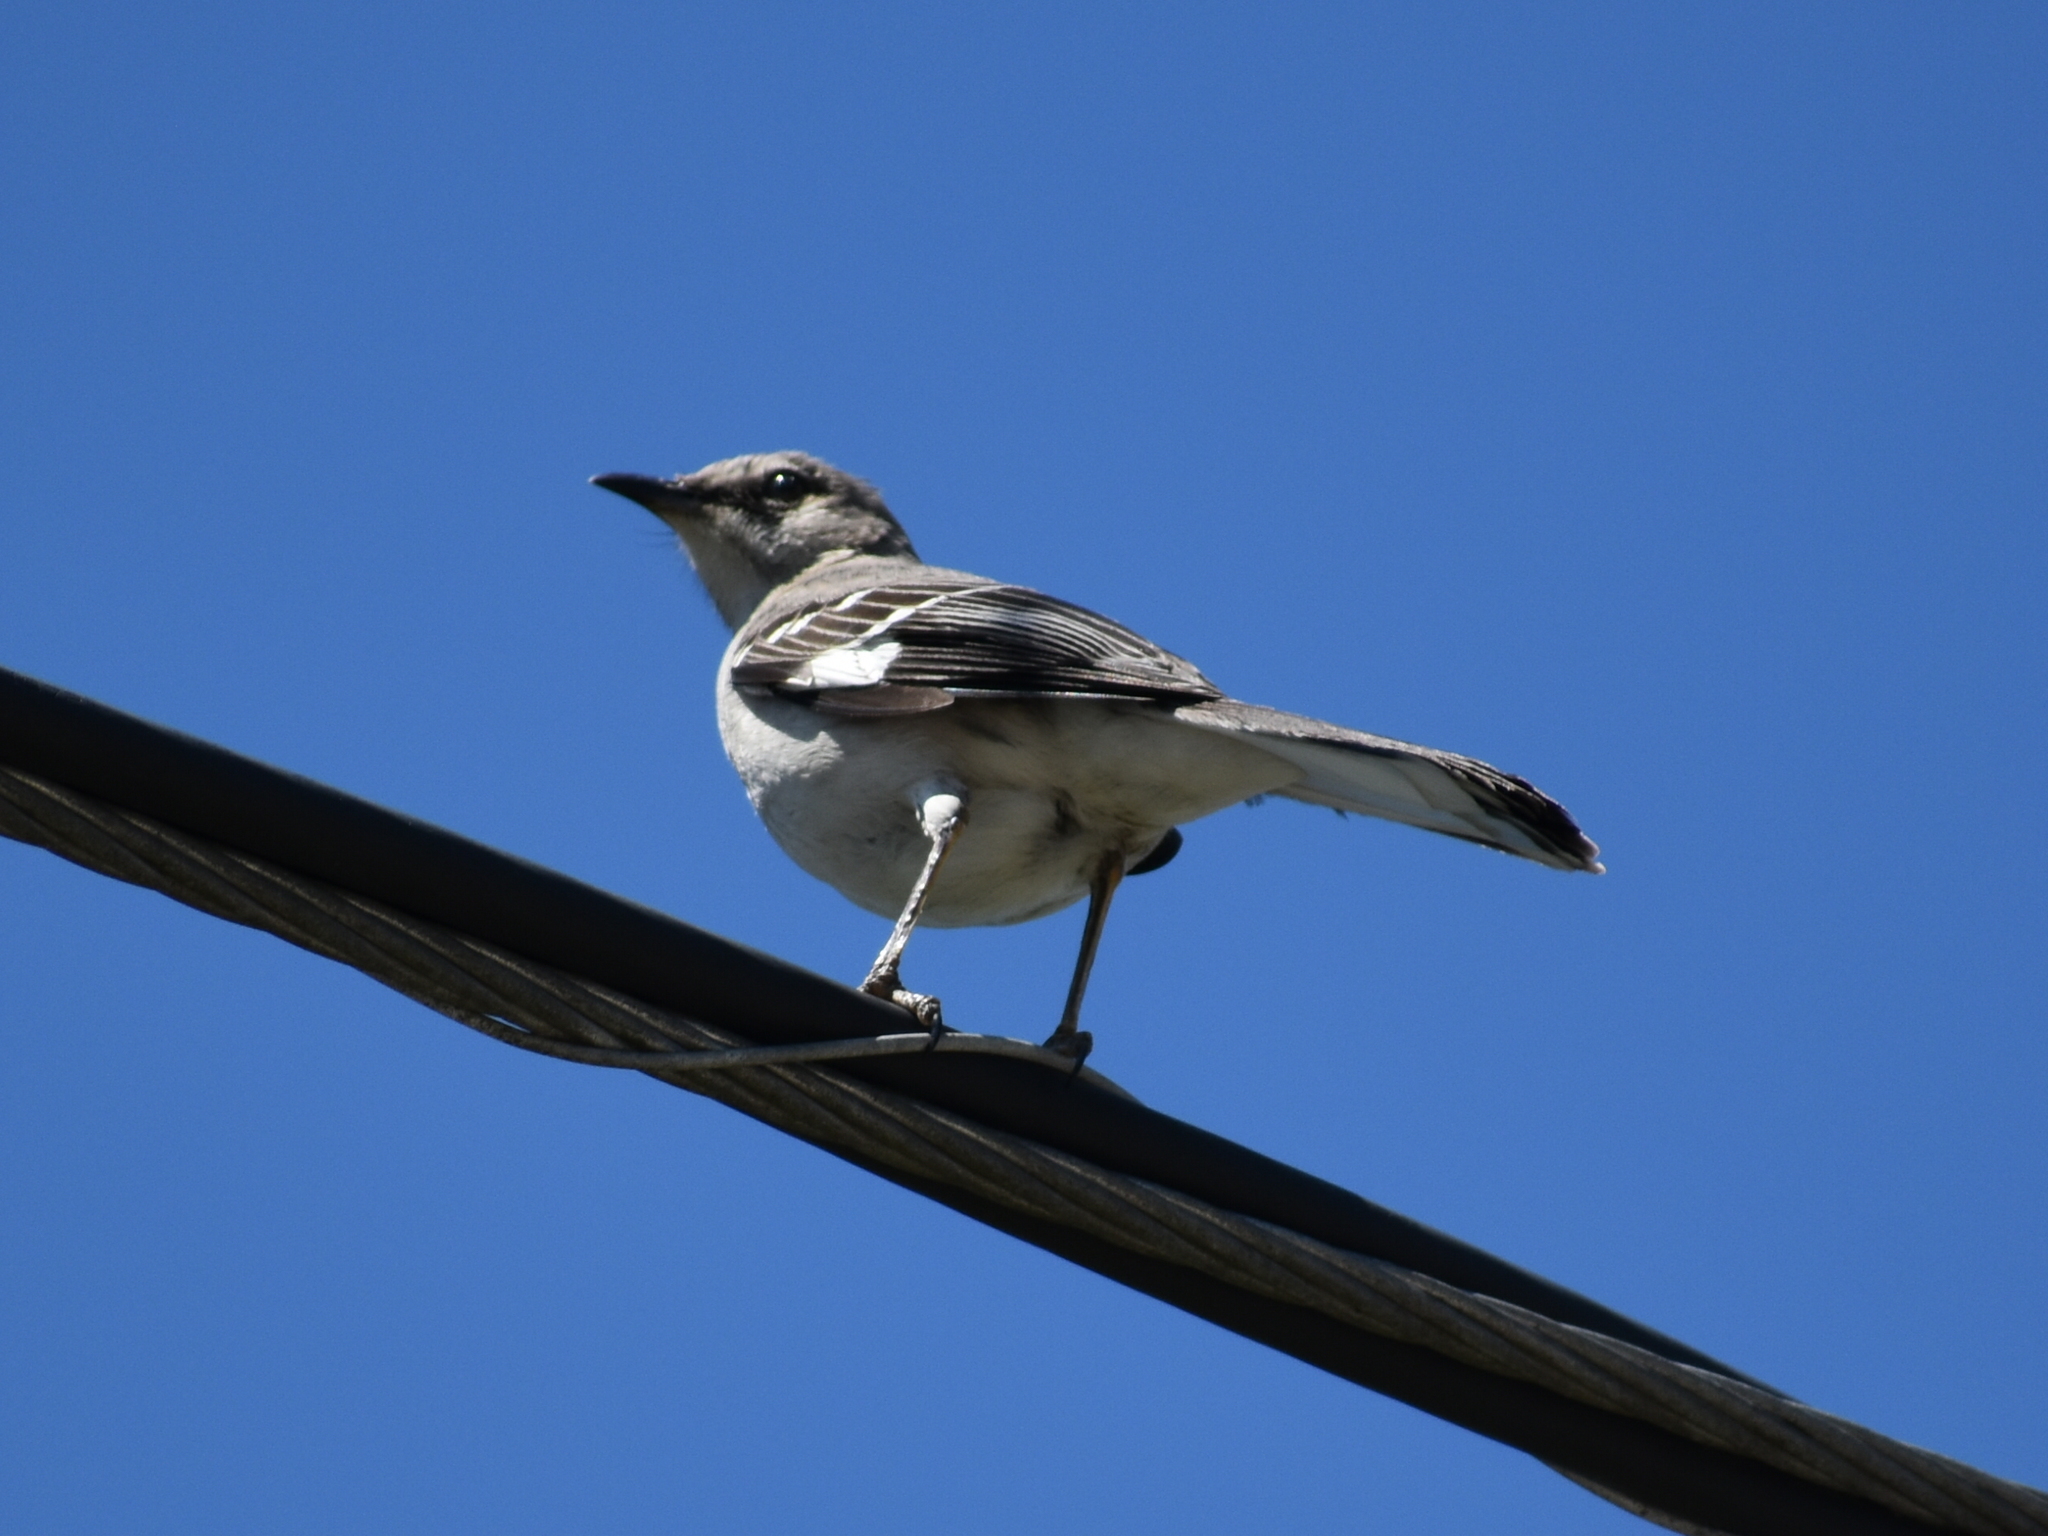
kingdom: Animalia
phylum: Chordata
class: Aves
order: Passeriformes
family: Mimidae
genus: Mimus
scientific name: Mimus polyglottos
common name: Northern mockingbird
